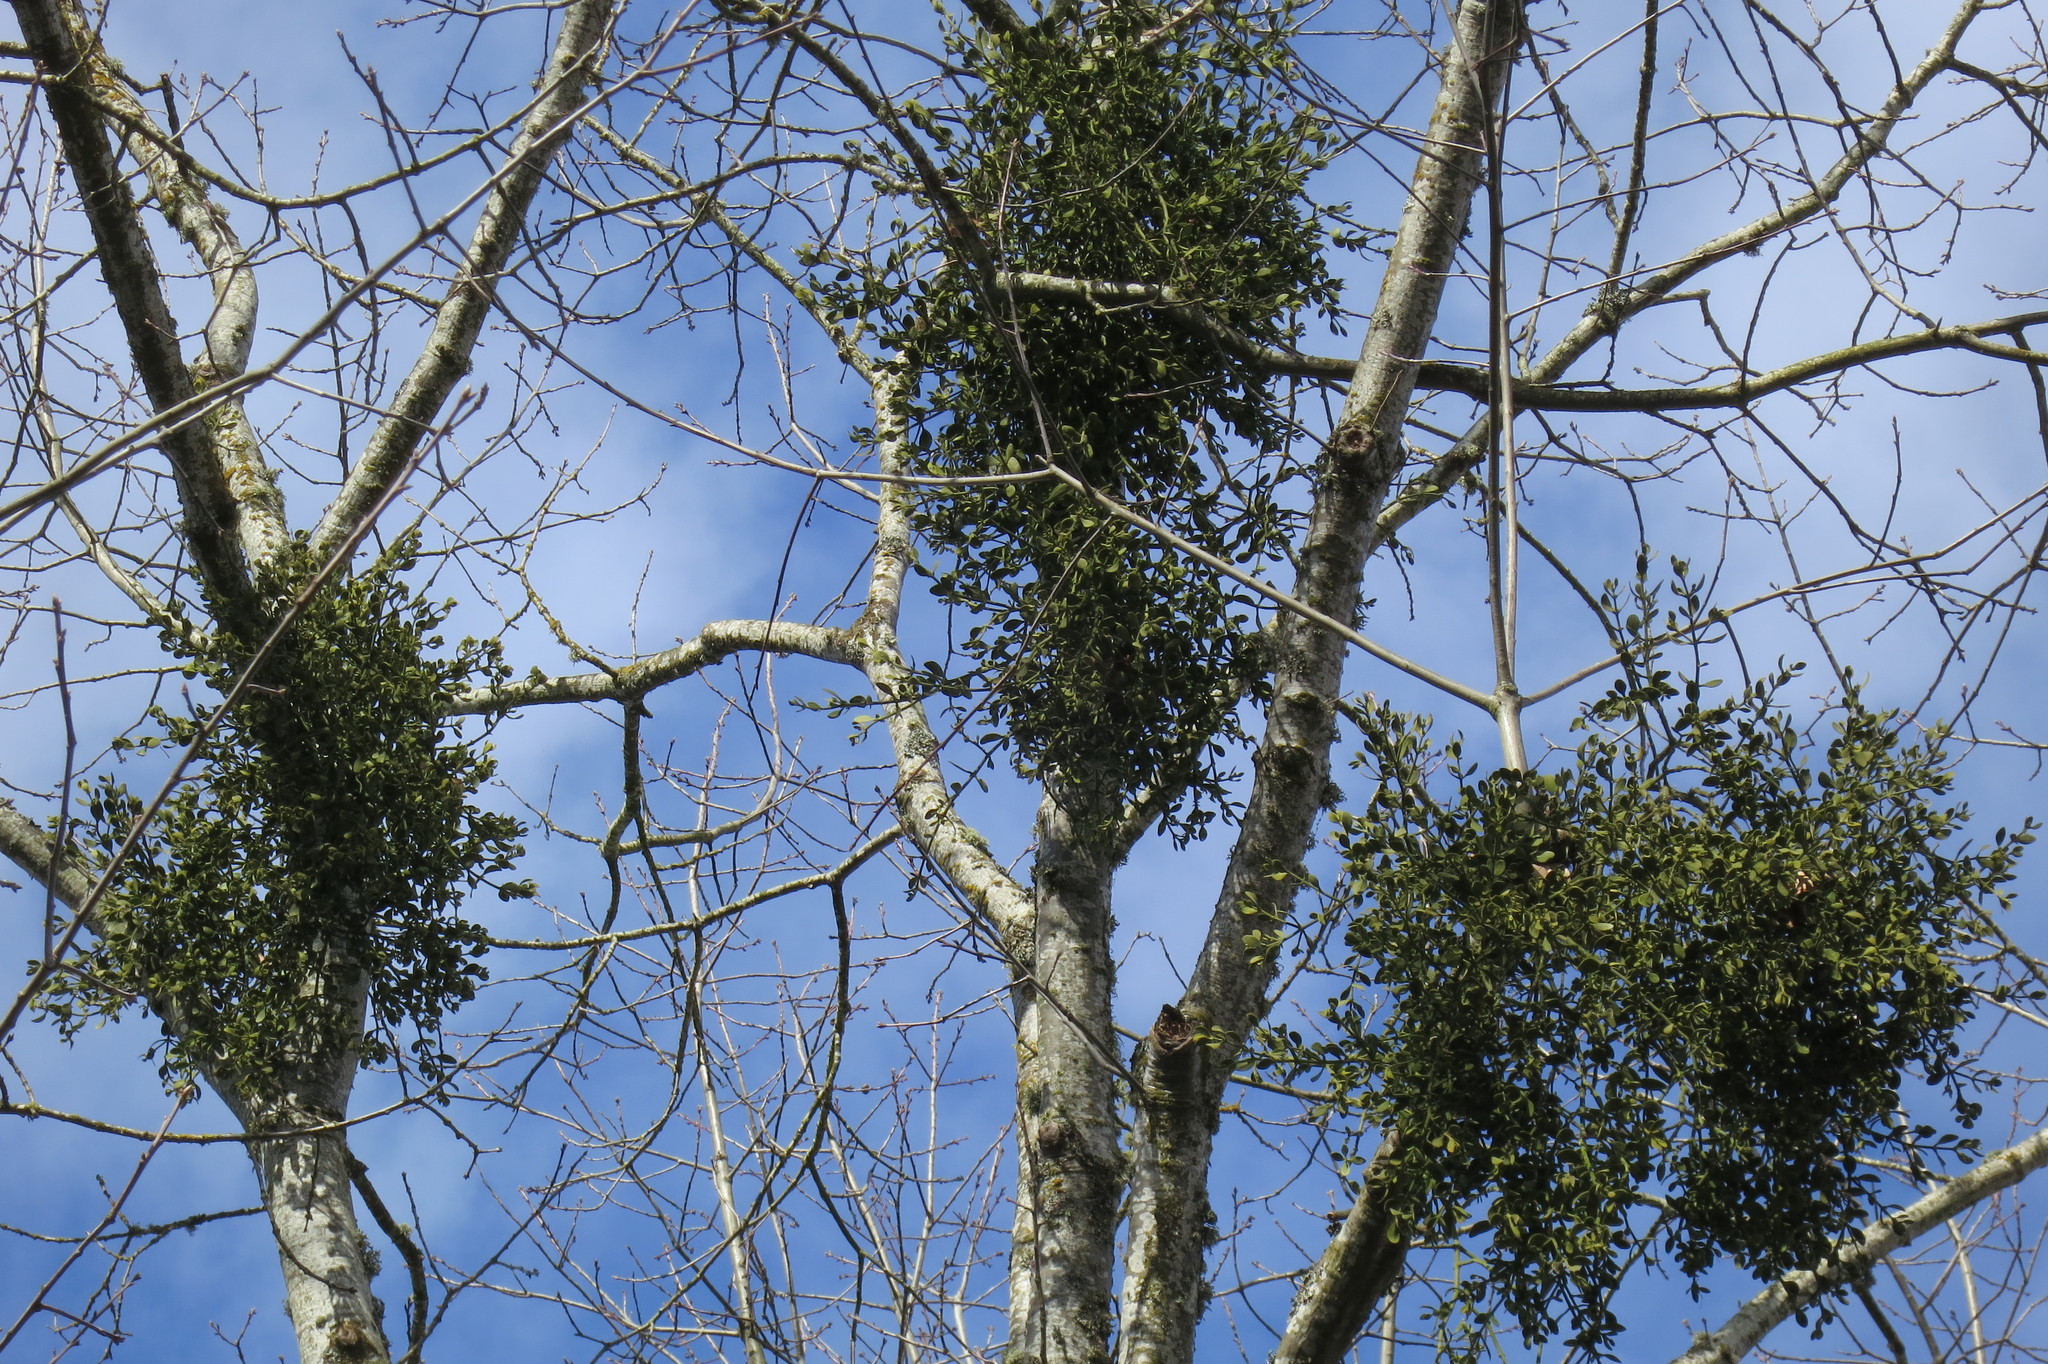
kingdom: Plantae
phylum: Tracheophyta
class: Magnoliopsida
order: Santalales
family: Viscaceae
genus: Phoradendron
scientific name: Phoradendron leucarpum
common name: Pacific mistletoe
